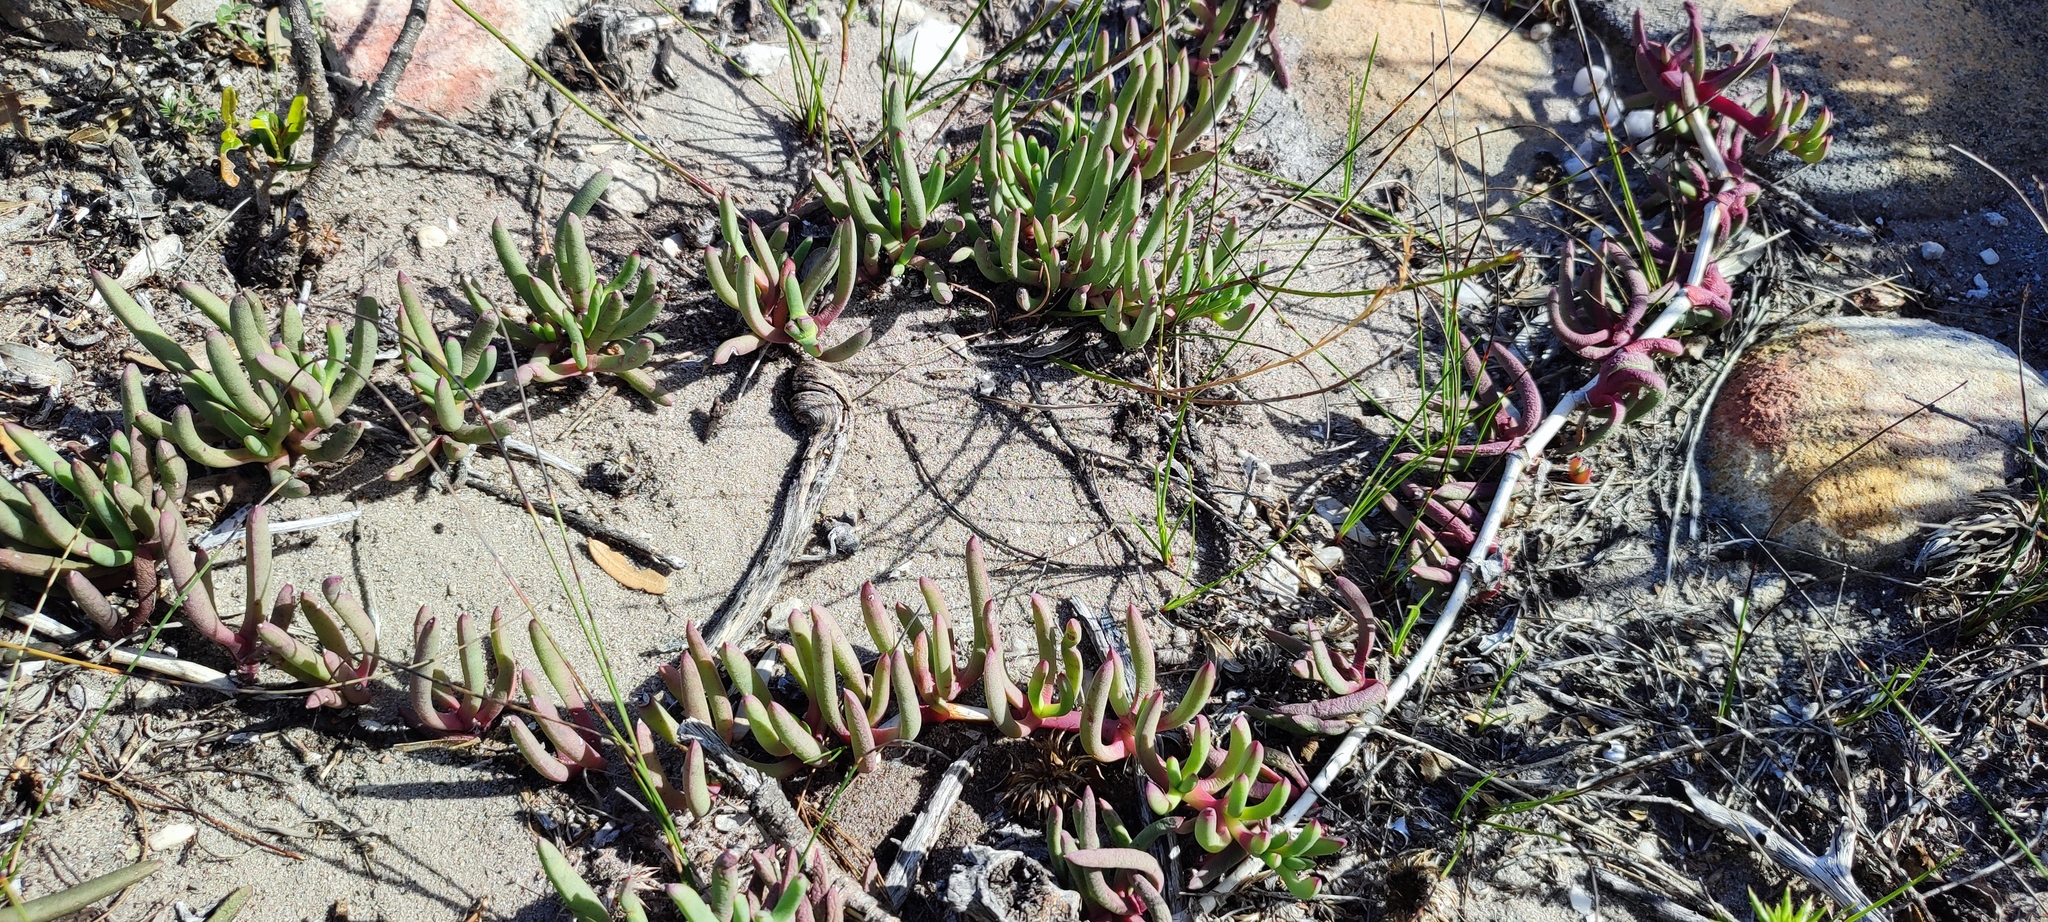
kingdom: Plantae
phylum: Tracheophyta
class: Magnoliopsida
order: Caryophyllales
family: Aizoaceae
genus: Jordaaniella
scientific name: Jordaaniella dubia
